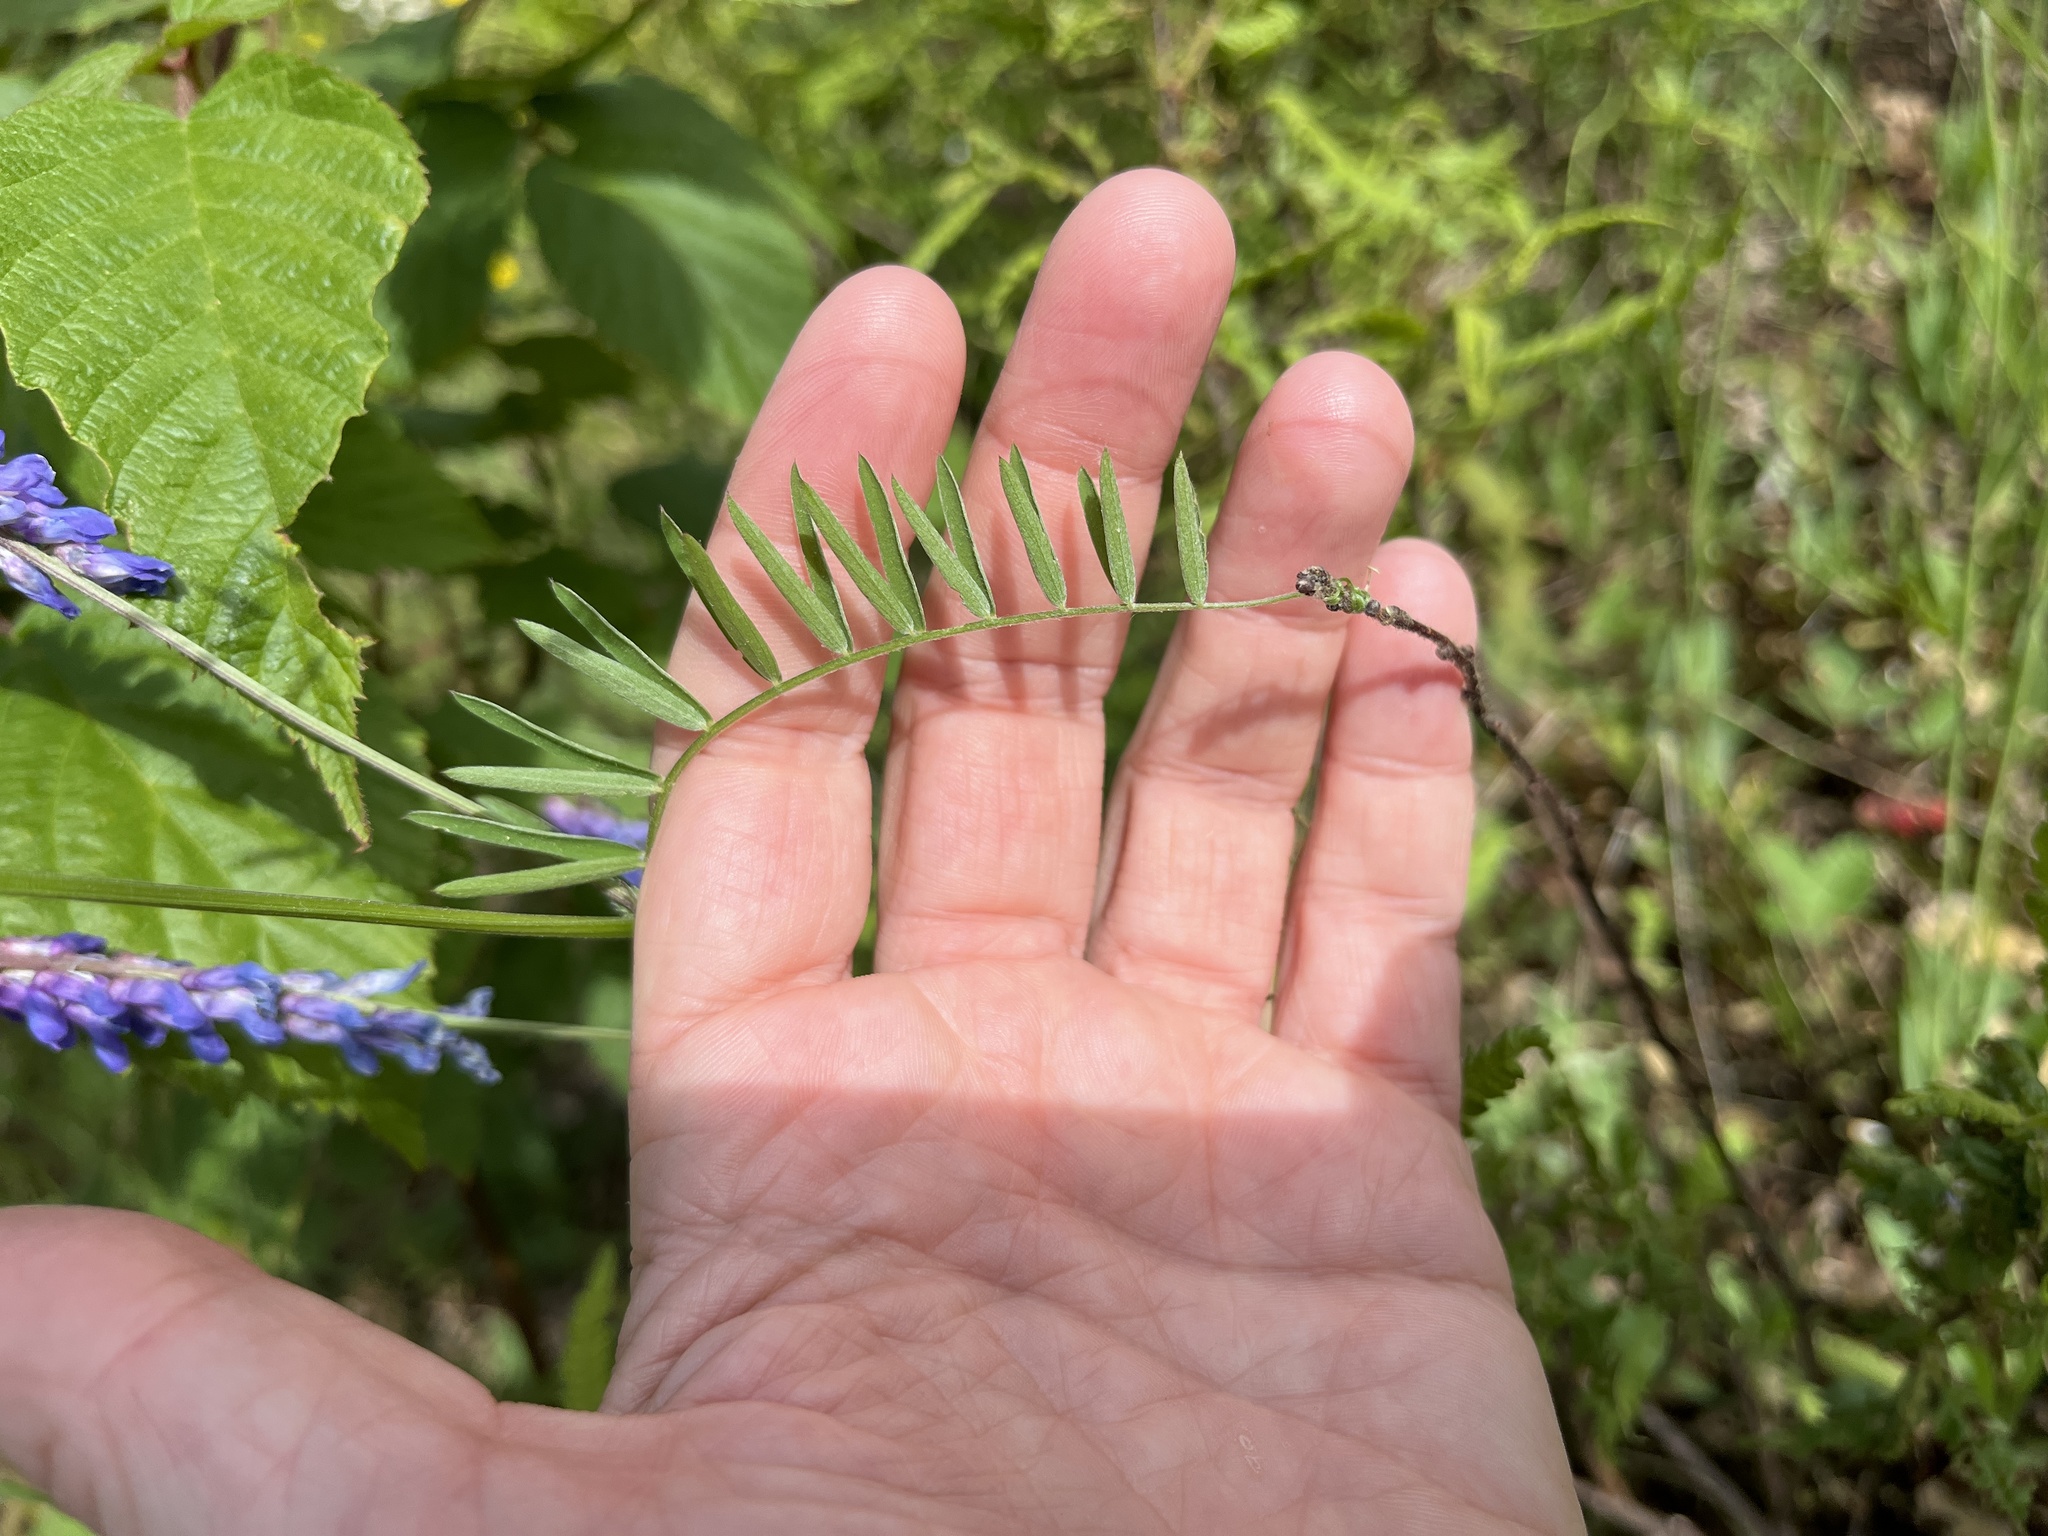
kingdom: Plantae
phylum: Tracheophyta
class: Magnoliopsida
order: Fabales
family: Fabaceae
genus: Vicia
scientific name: Vicia cracca
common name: Bird vetch
